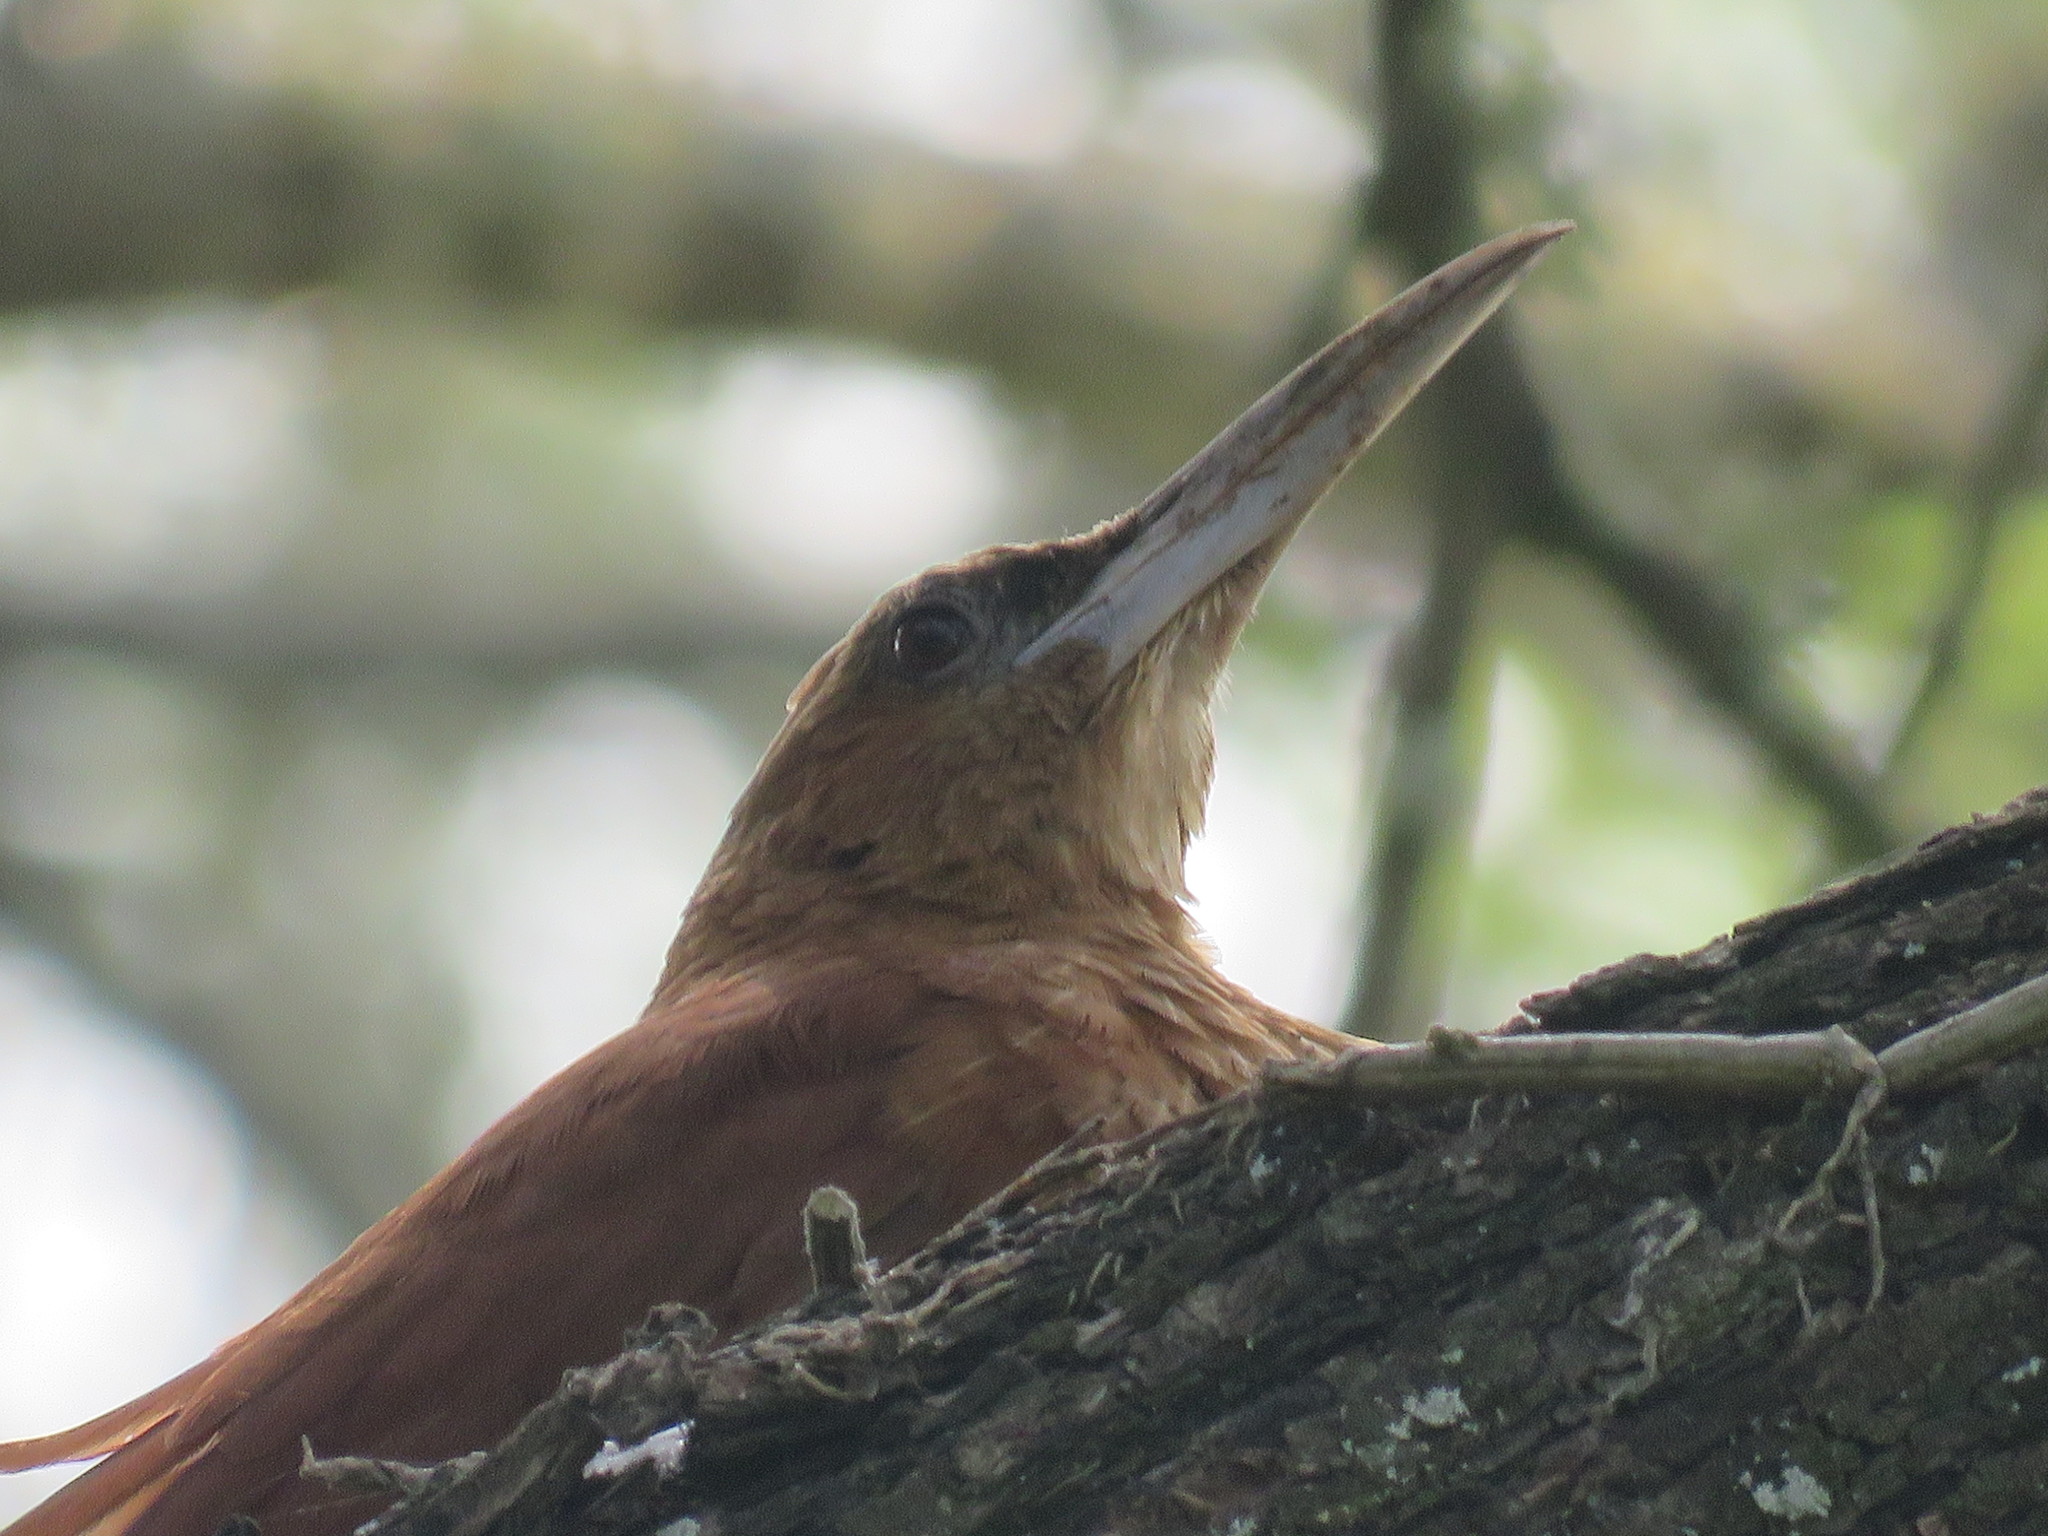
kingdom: Animalia
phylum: Chordata
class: Aves
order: Passeriformes
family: Furnariidae
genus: Xiphocolaptes
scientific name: Xiphocolaptes major
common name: Great rufous woodcreeper
